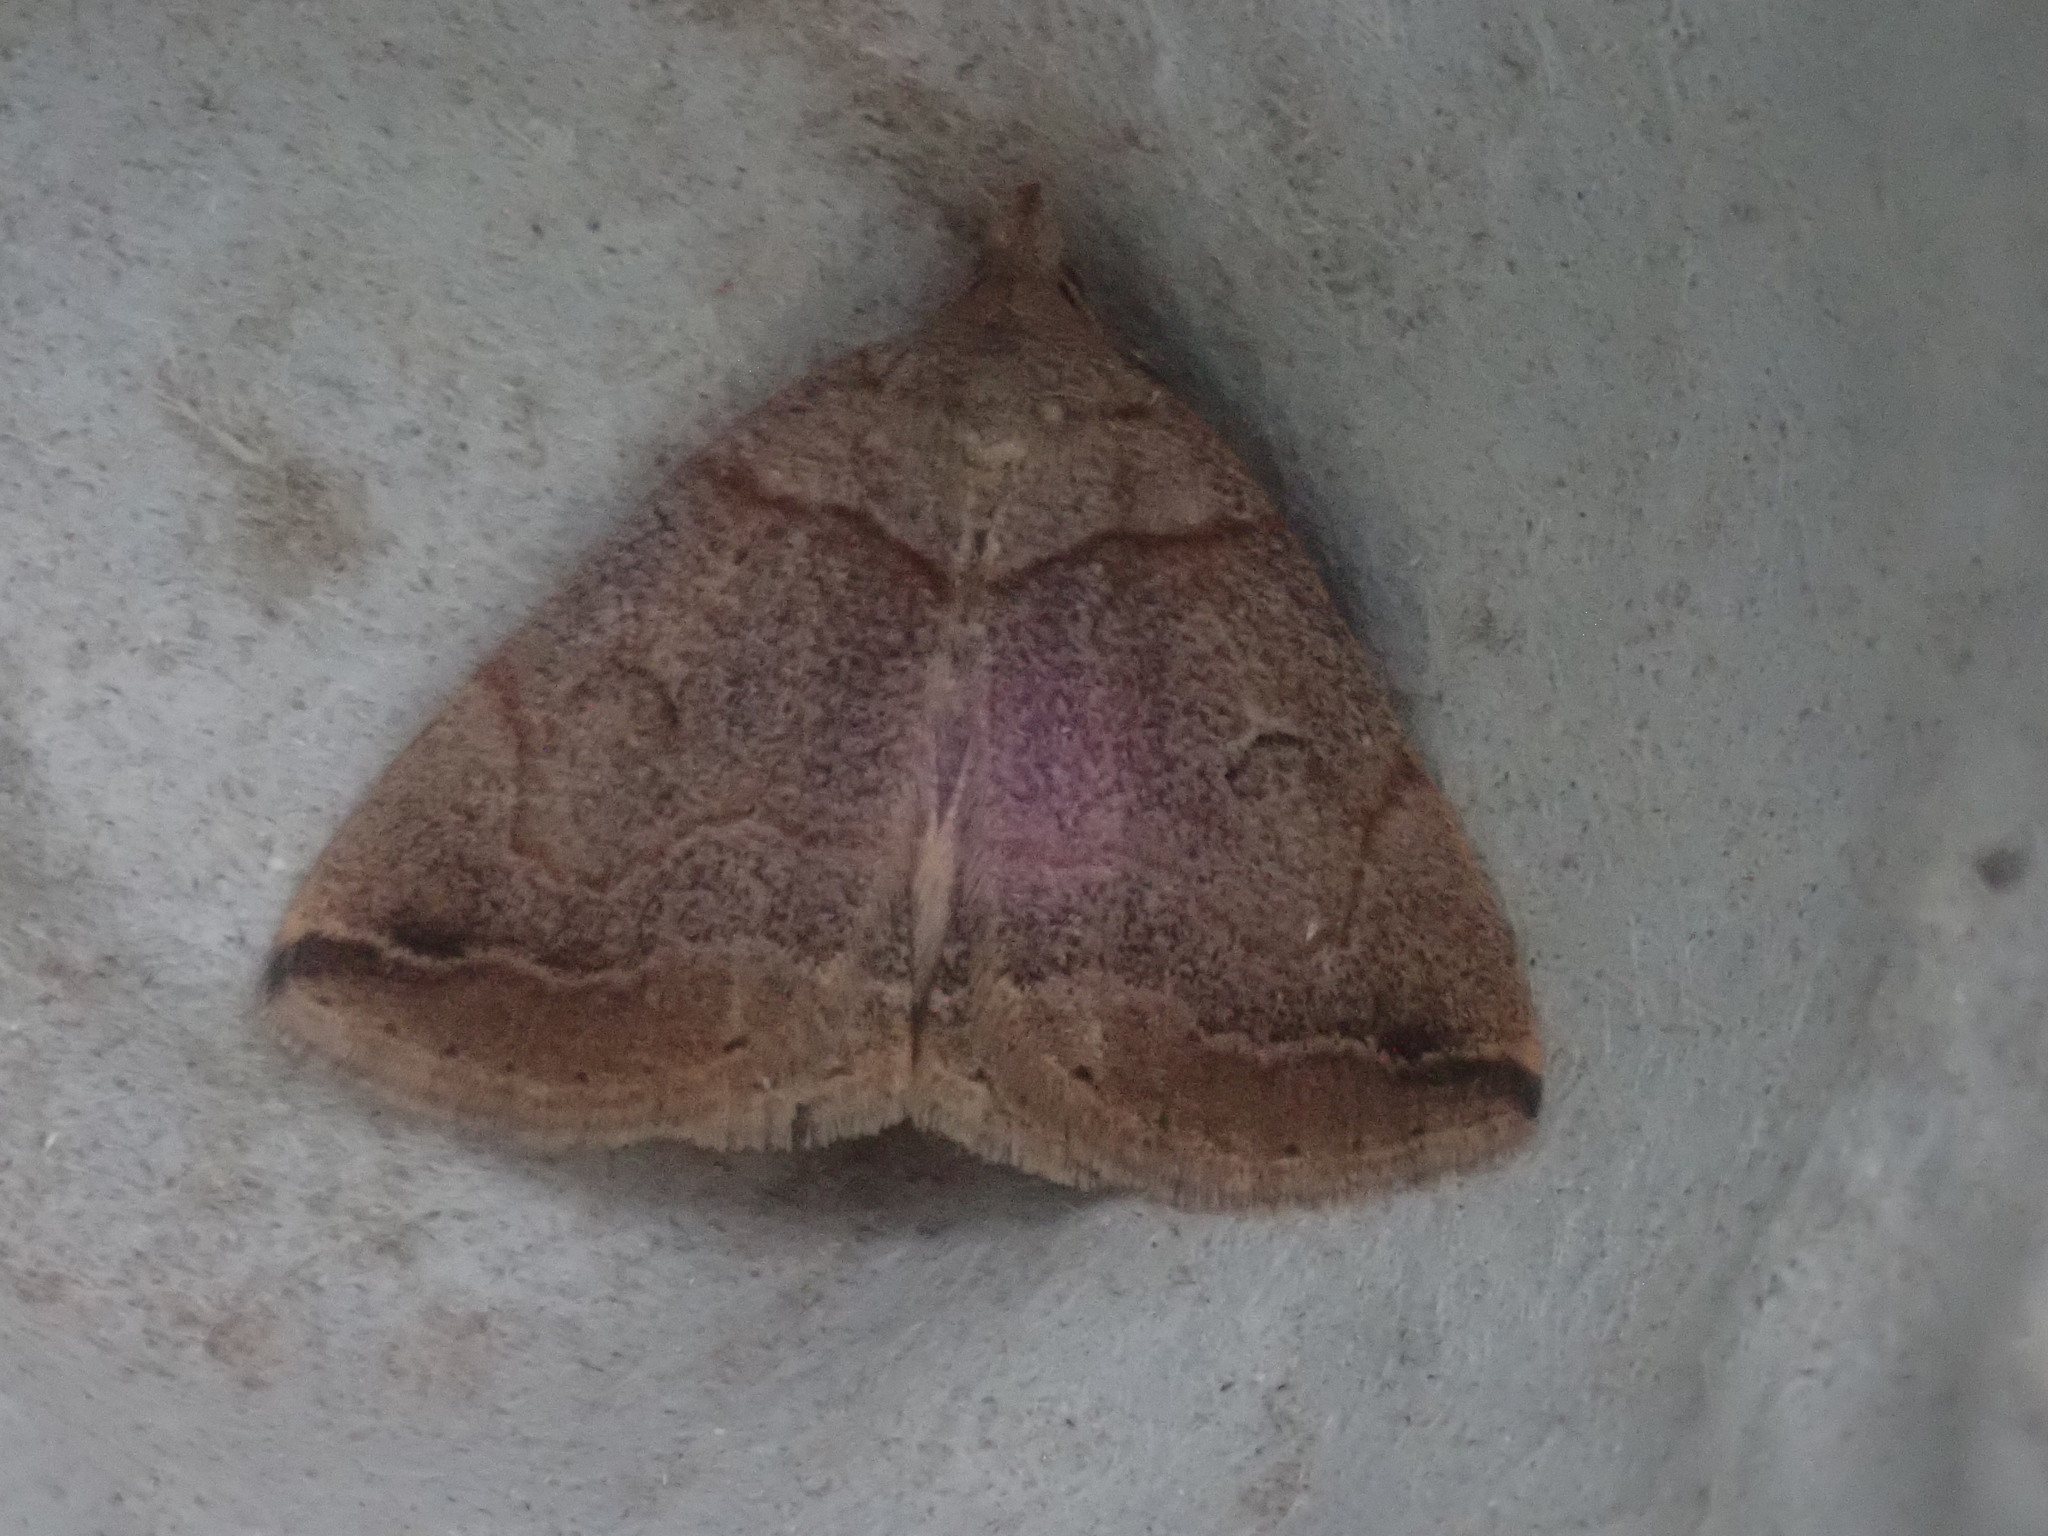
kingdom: Animalia
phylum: Arthropoda
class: Insecta
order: Lepidoptera
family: Erebidae
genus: Zanclognatha
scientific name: Zanclognatha laevigata
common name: Variable fan-foot
